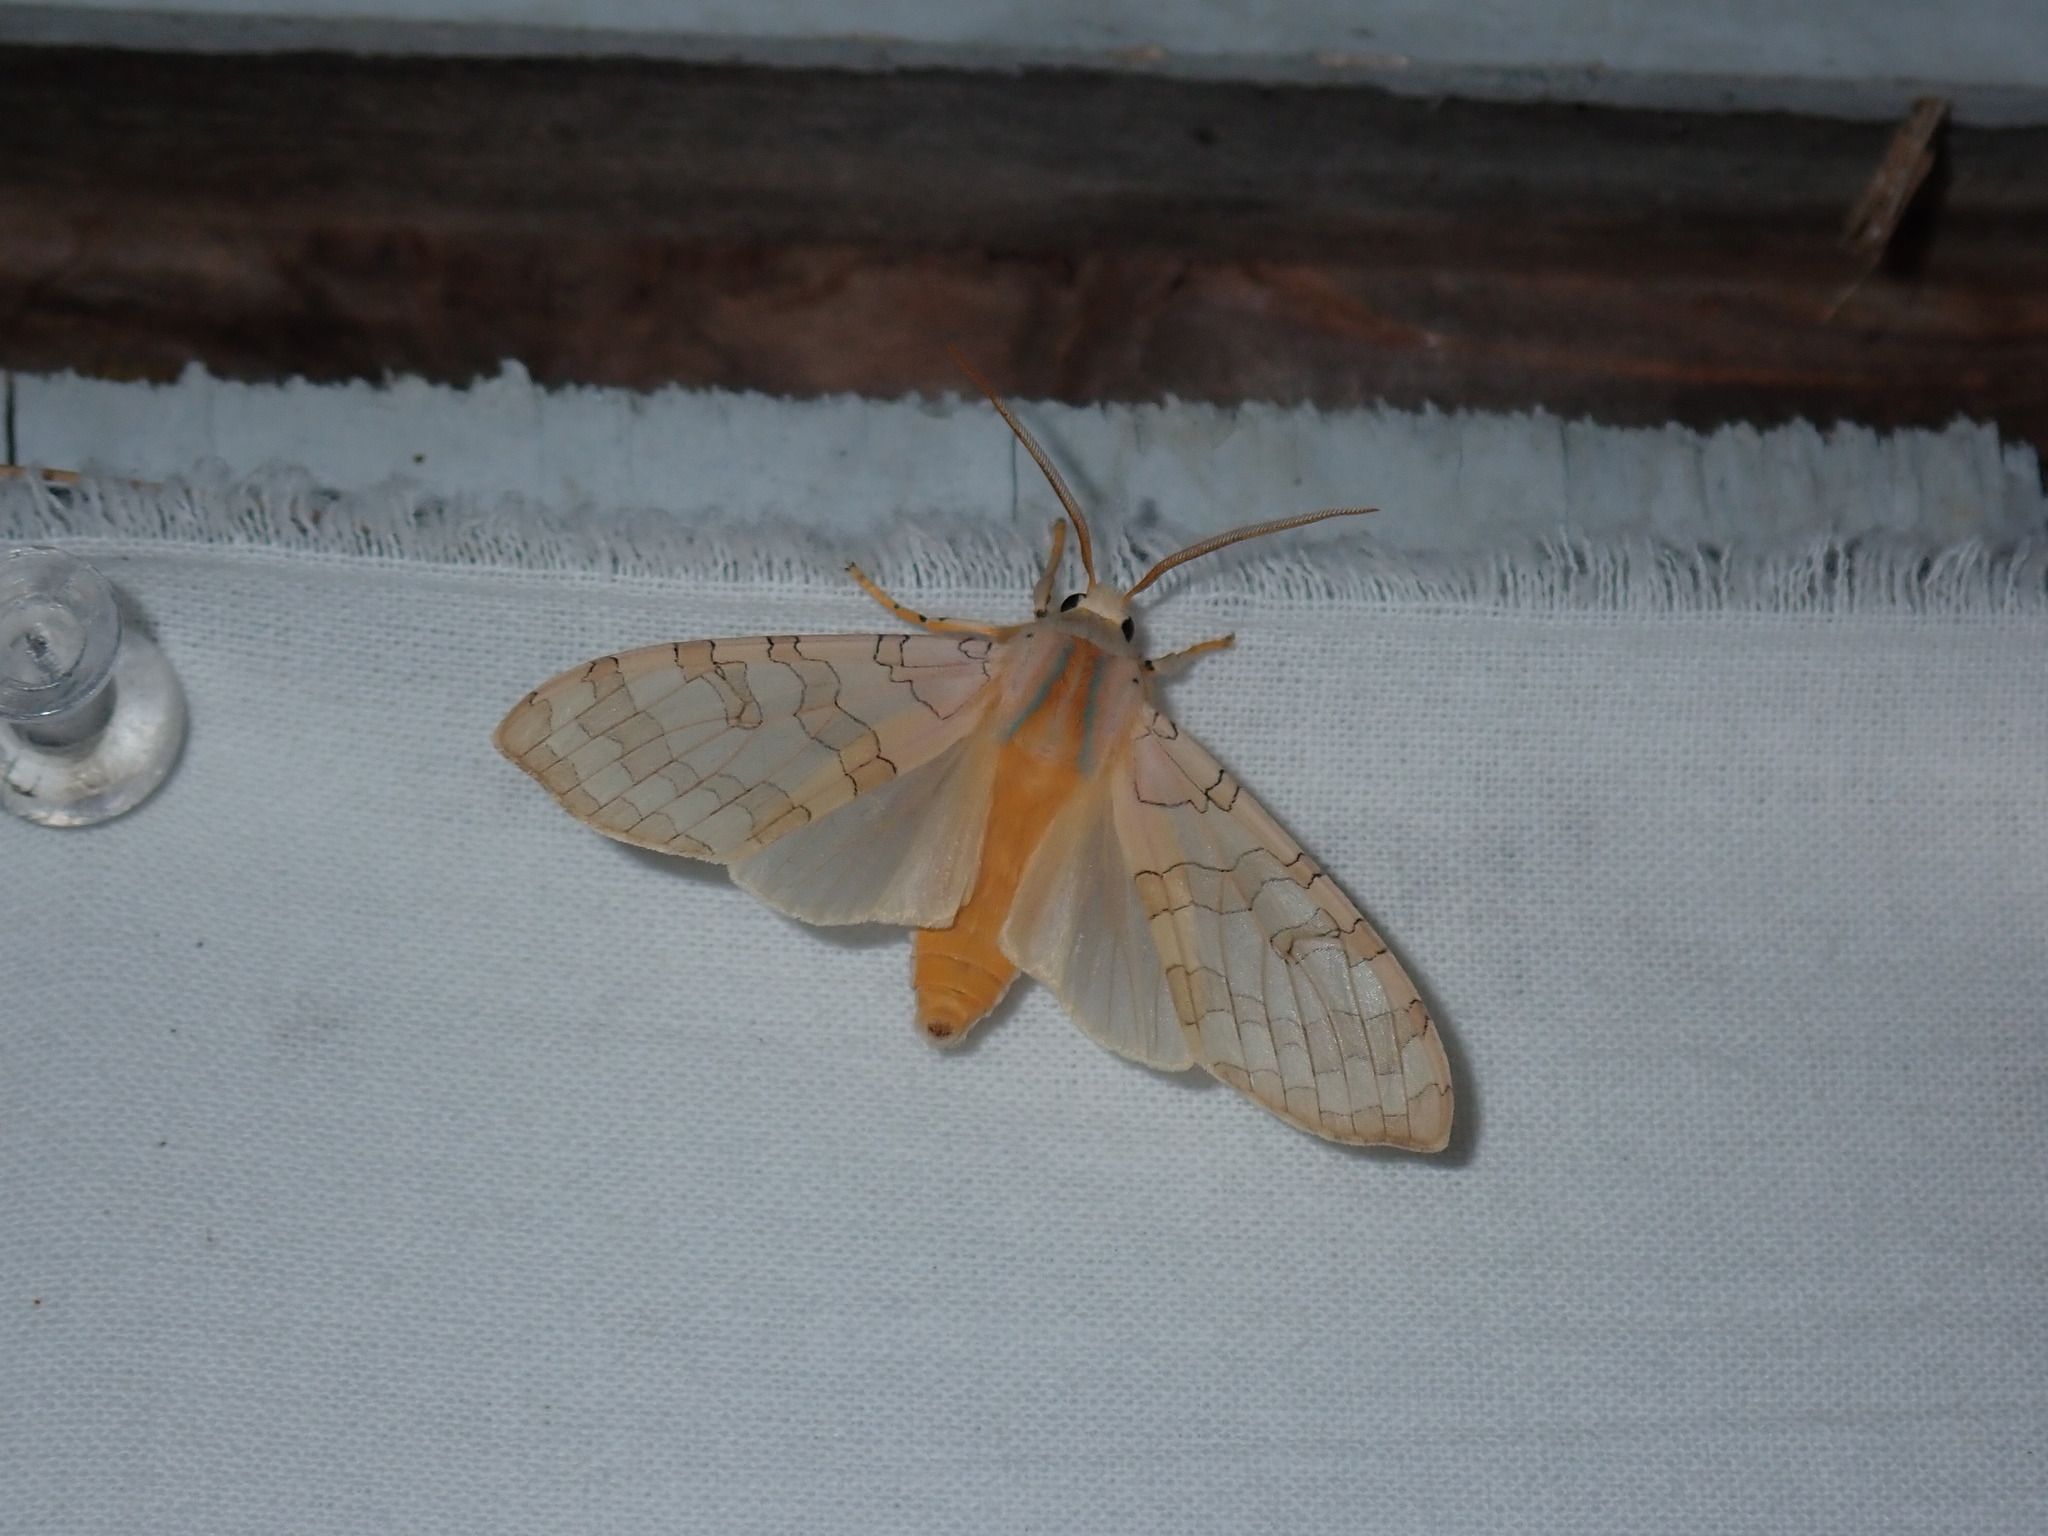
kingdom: Animalia
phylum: Arthropoda
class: Insecta
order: Lepidoptera
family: Erebidae
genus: Halysidota
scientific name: Halysidota tessellaris
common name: Banded tussock moth
